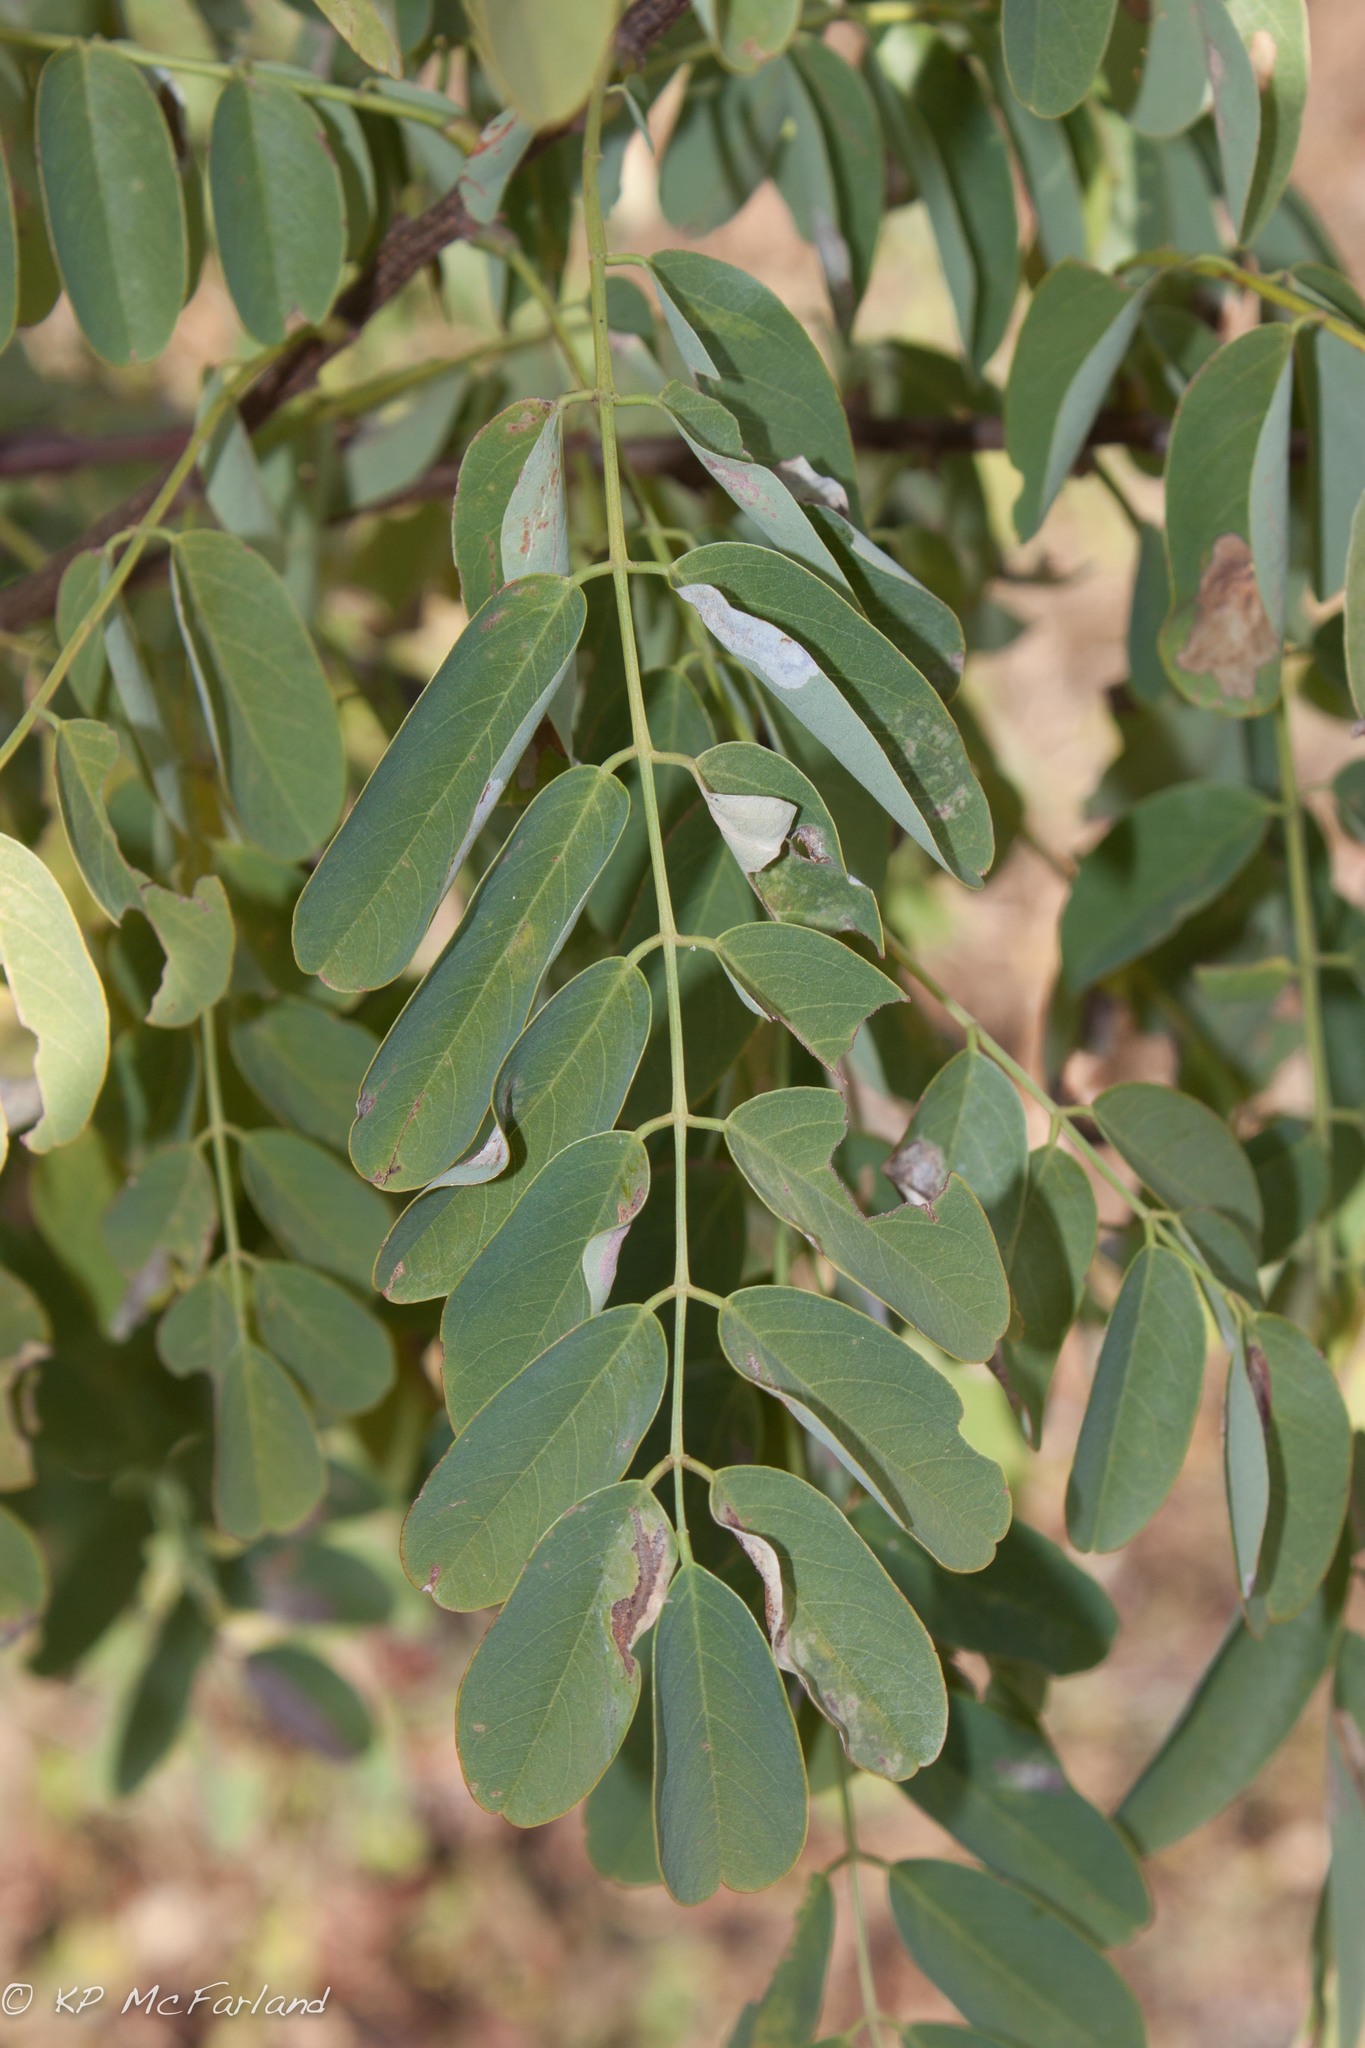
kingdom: Plantae
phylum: Tracheophyta
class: Magnoliopsida
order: Fabales
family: Fabaceae
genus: Robinia
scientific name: Robinia pseudoacacia
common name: Black locust
